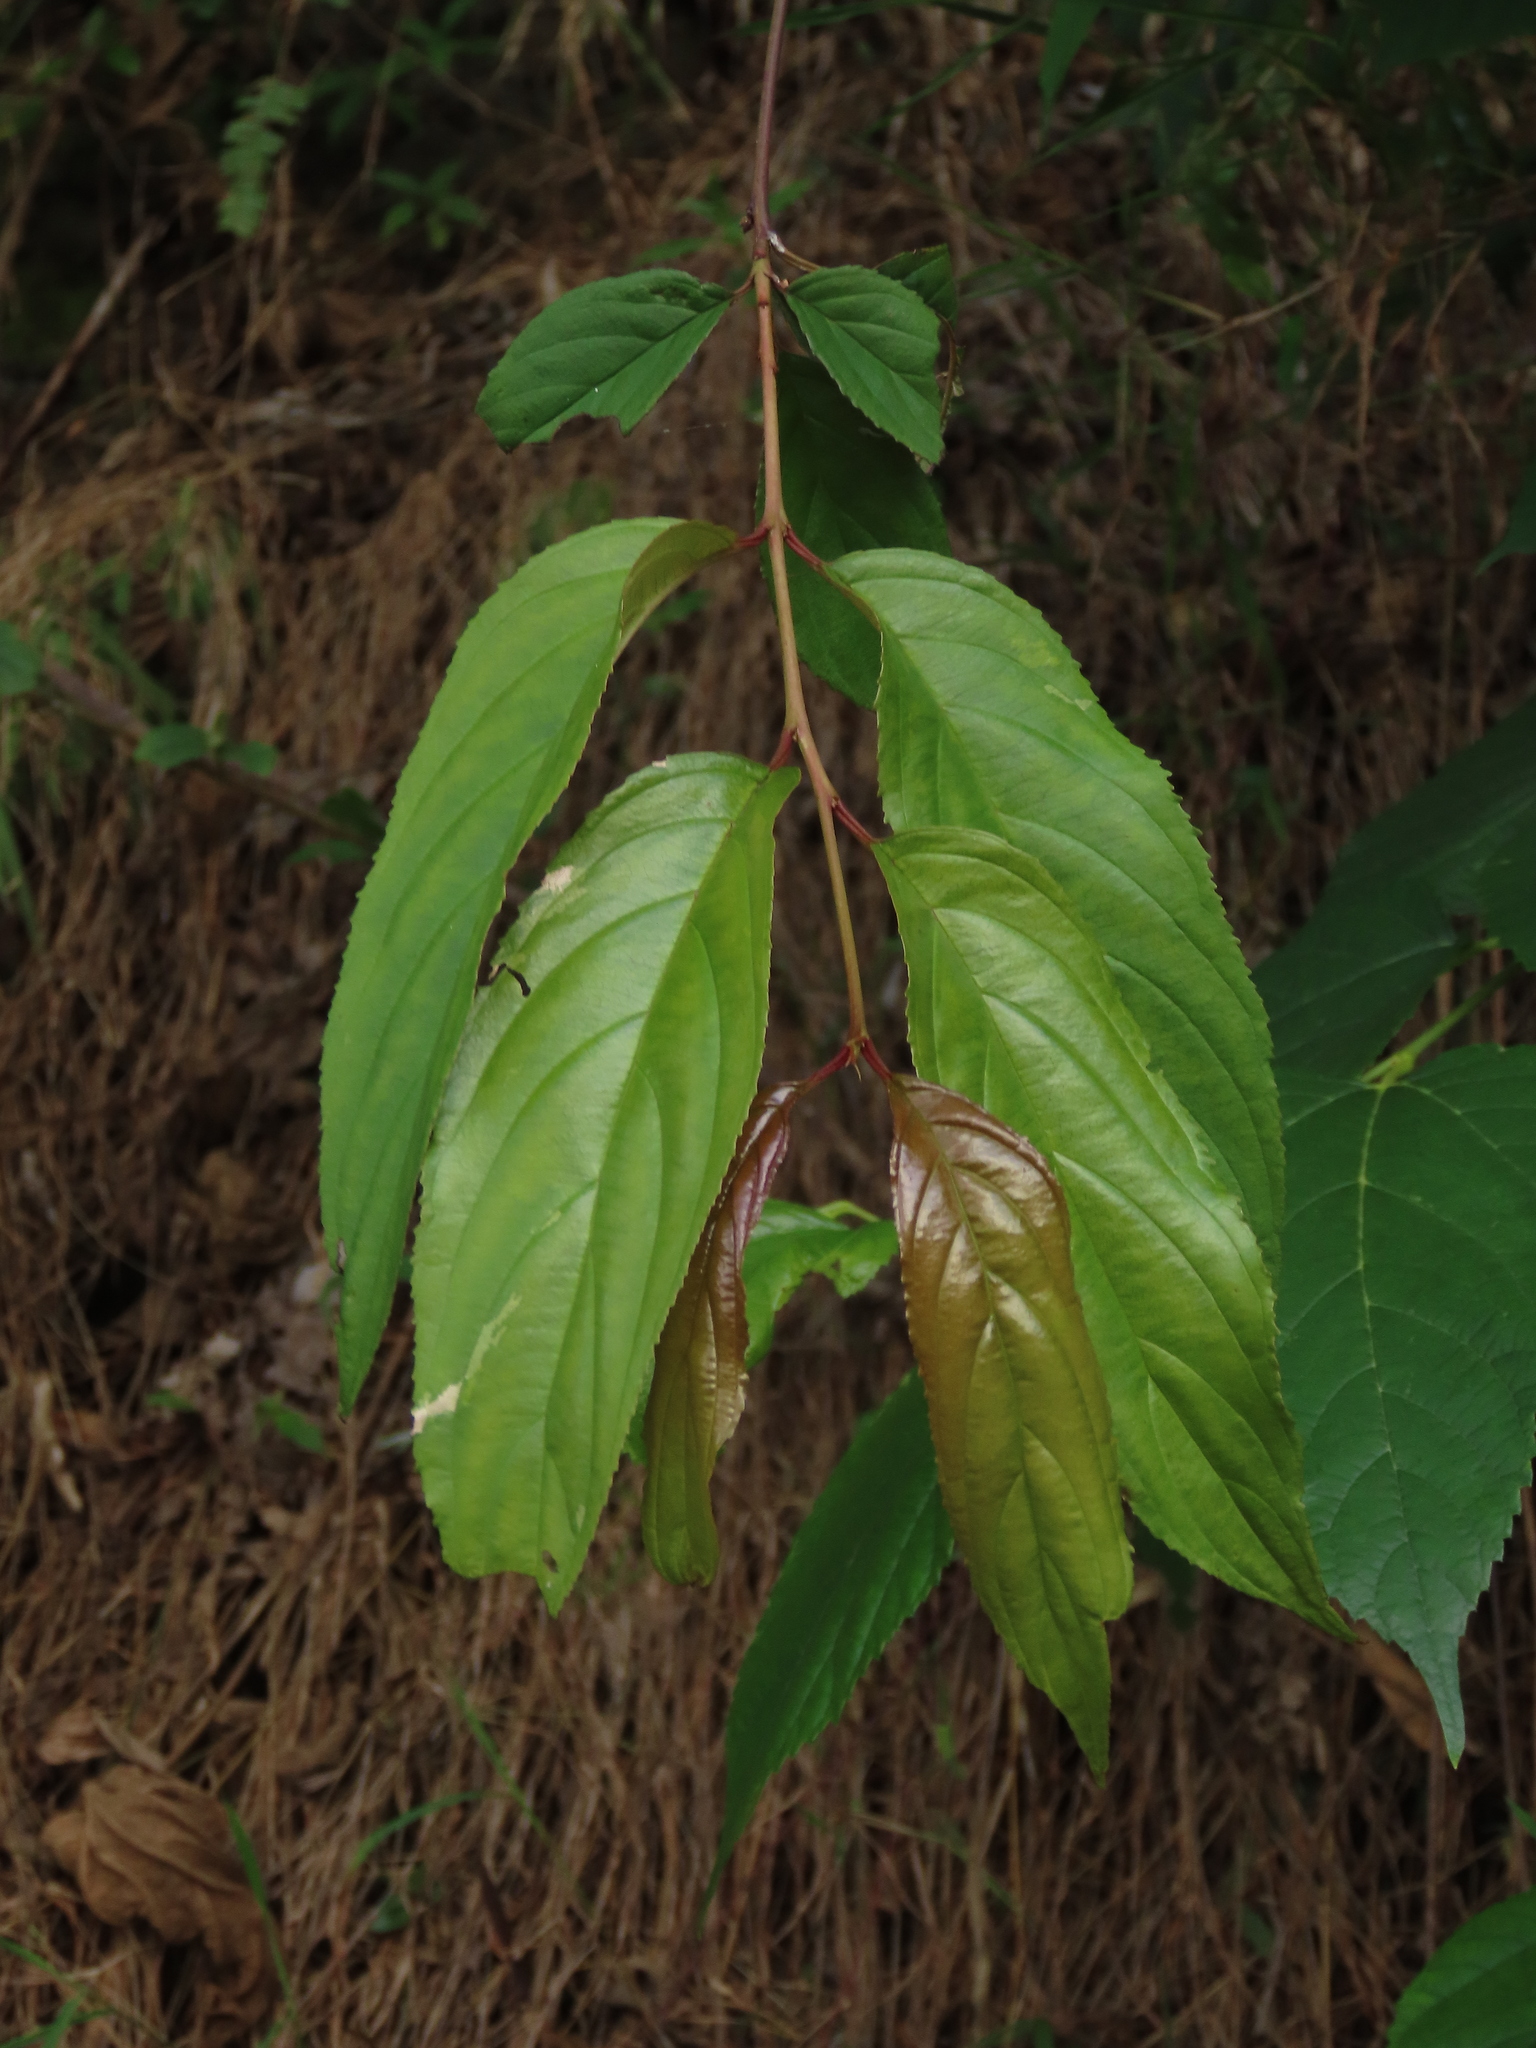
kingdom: Plantae
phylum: Tracheophyta
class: Magnoliopsida
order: Huerteales
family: Dipentodontaceae
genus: Perrottetia
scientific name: Perrottetia arisanensis
